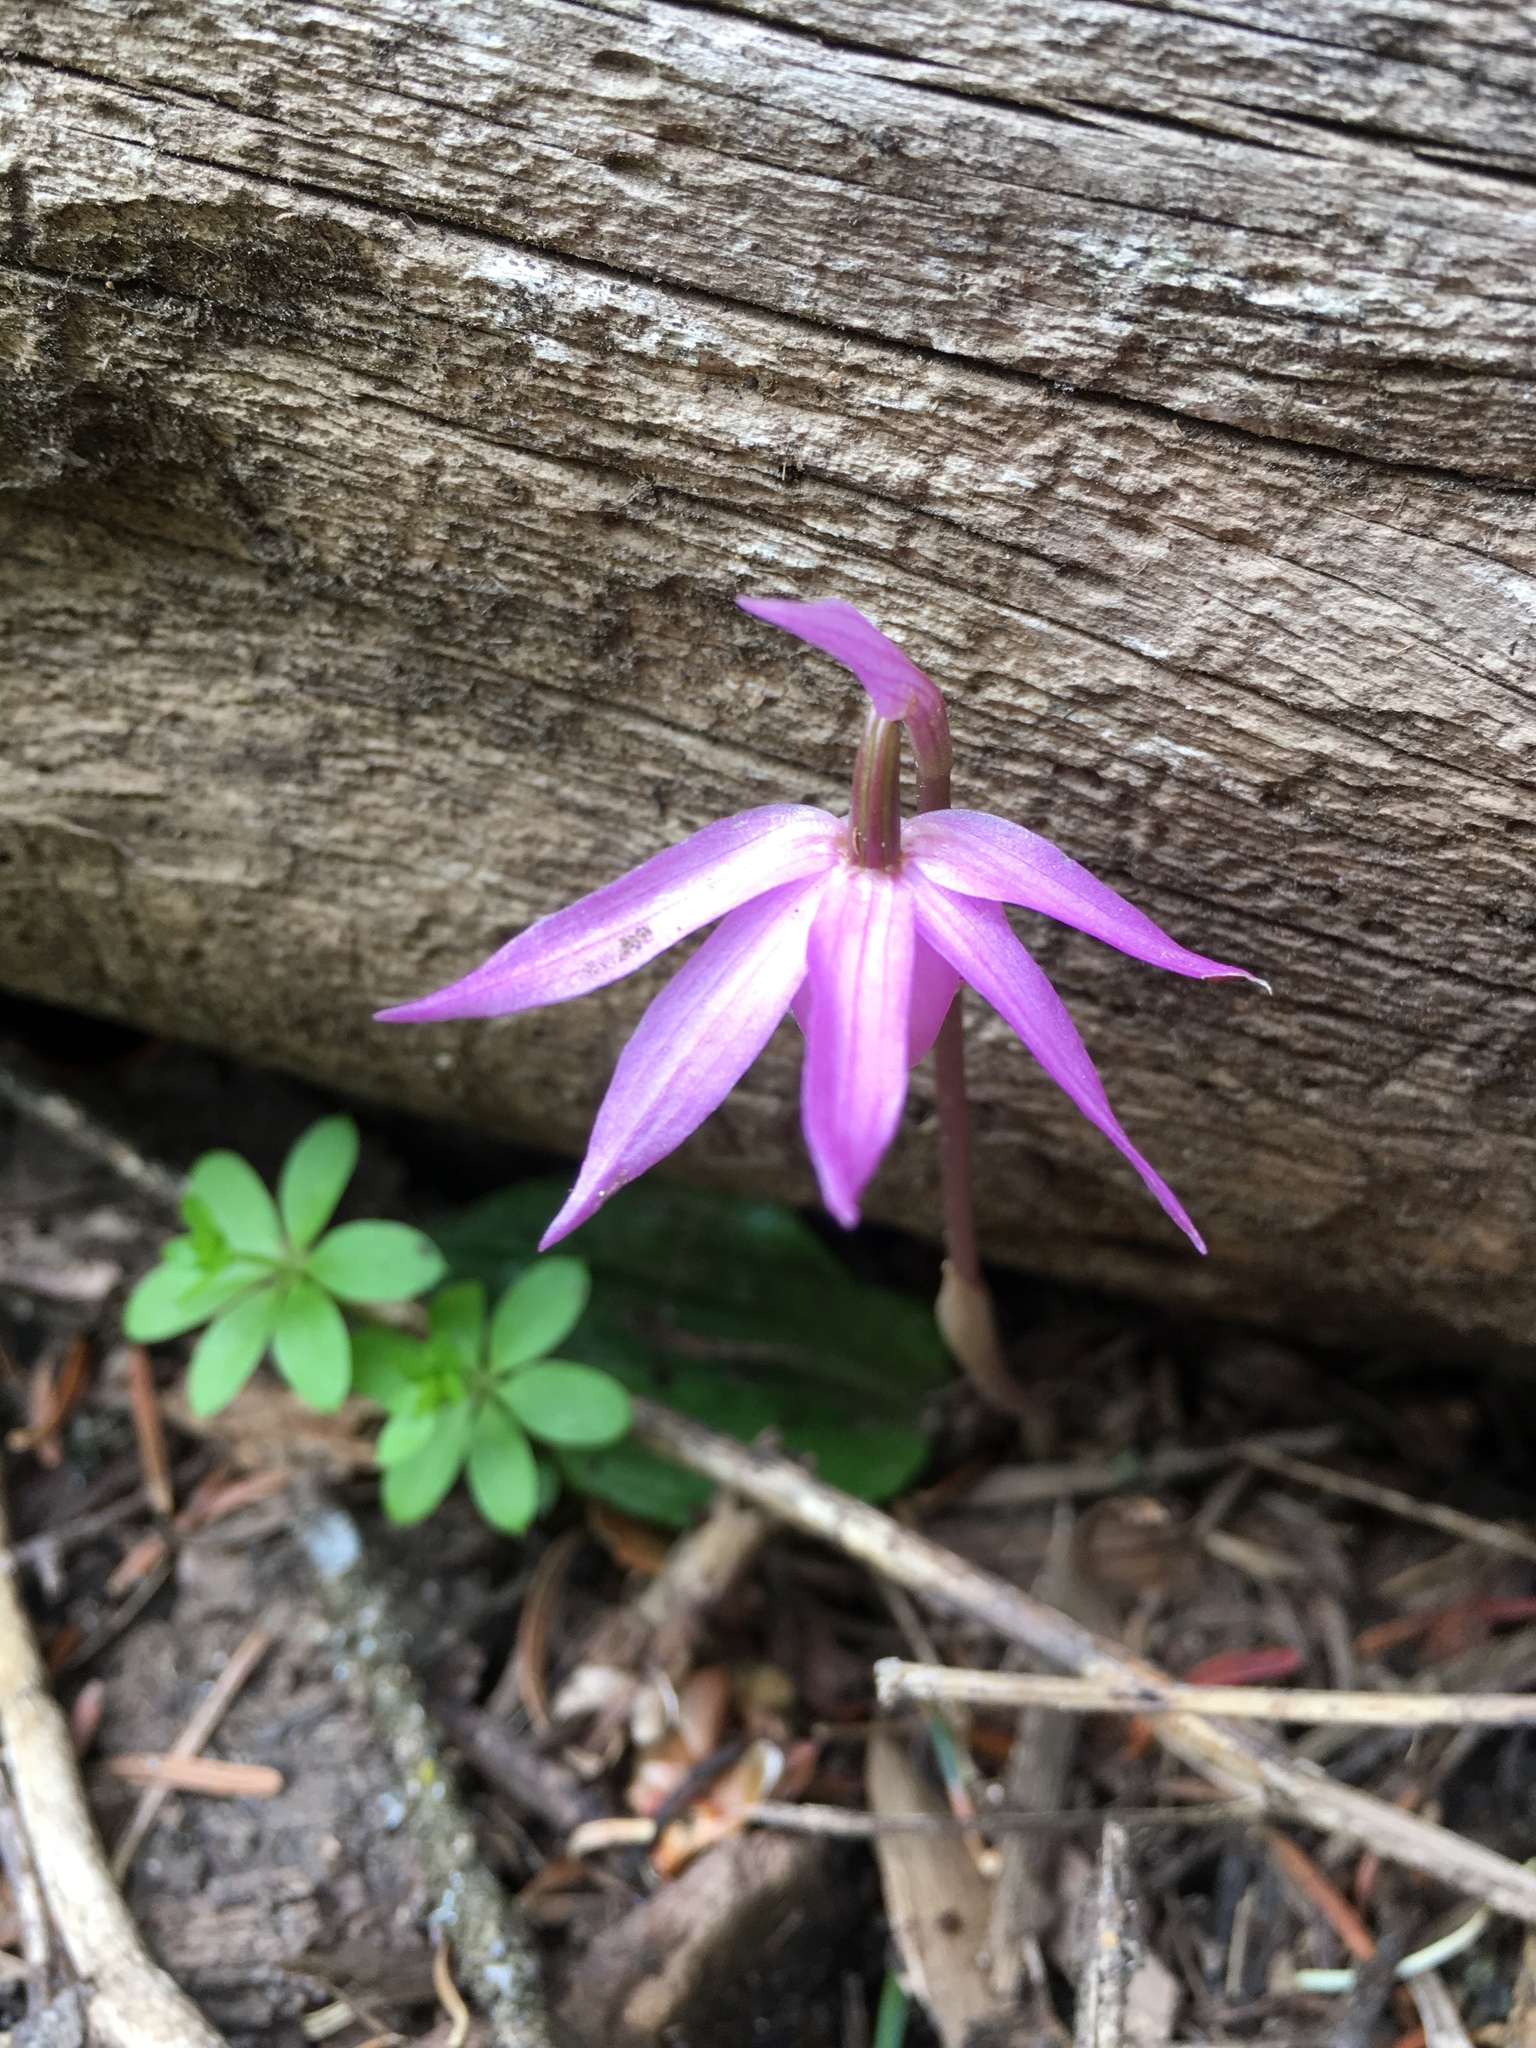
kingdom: Plantae
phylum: Tracheophyta
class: Liliopsida
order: Asparagales
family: Orchidaceae
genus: Calypso
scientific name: Calypso bulbosa
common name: Calypso
